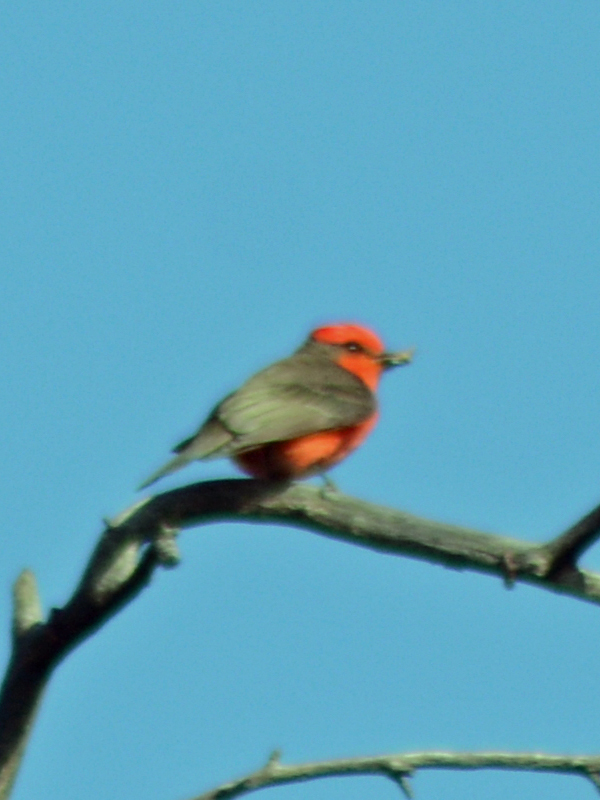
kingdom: Animalia
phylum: Chordata
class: Aves
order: Passeriformes
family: Tyrannidae
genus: Pyrocephalus
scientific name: Pyrocephalus rubinus
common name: Vermilion flycatcher
